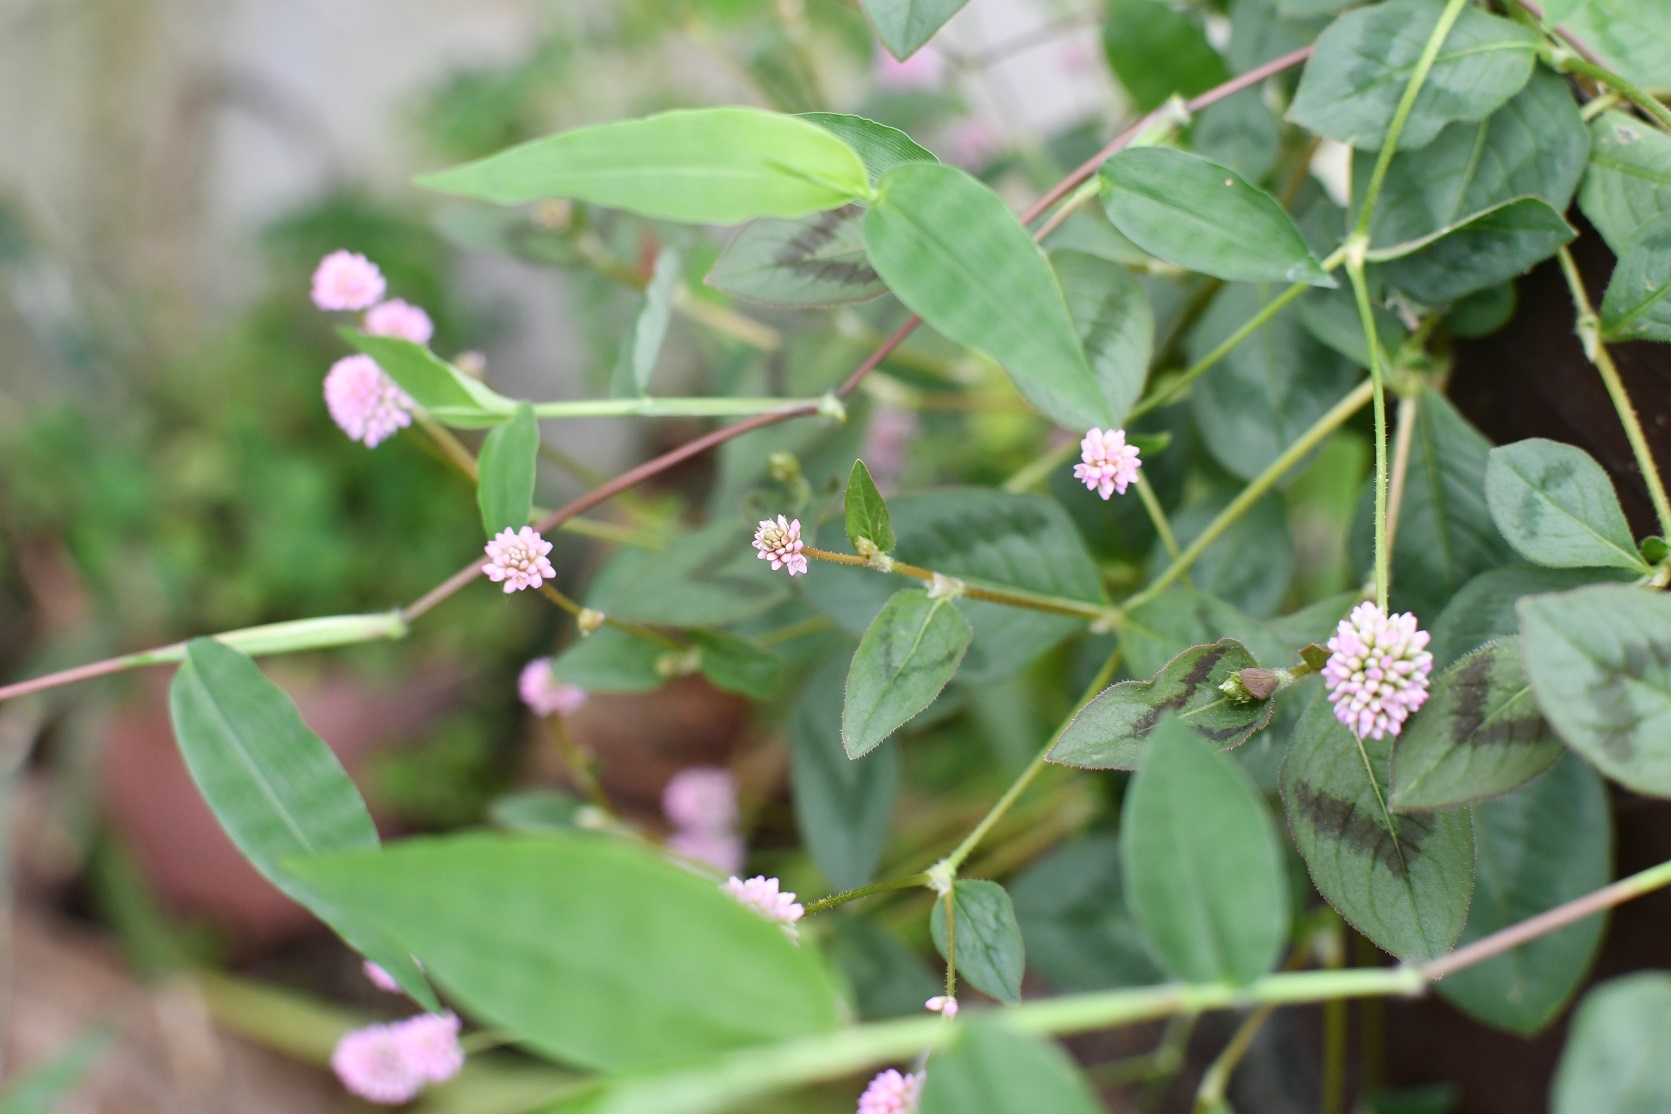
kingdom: Plantae
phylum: Tracheophyta
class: Magnoliopsida
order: Caryophyllales
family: Polygonaceae
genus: Persicaria
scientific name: Persicaria capitata
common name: Pinkhead smartweed
